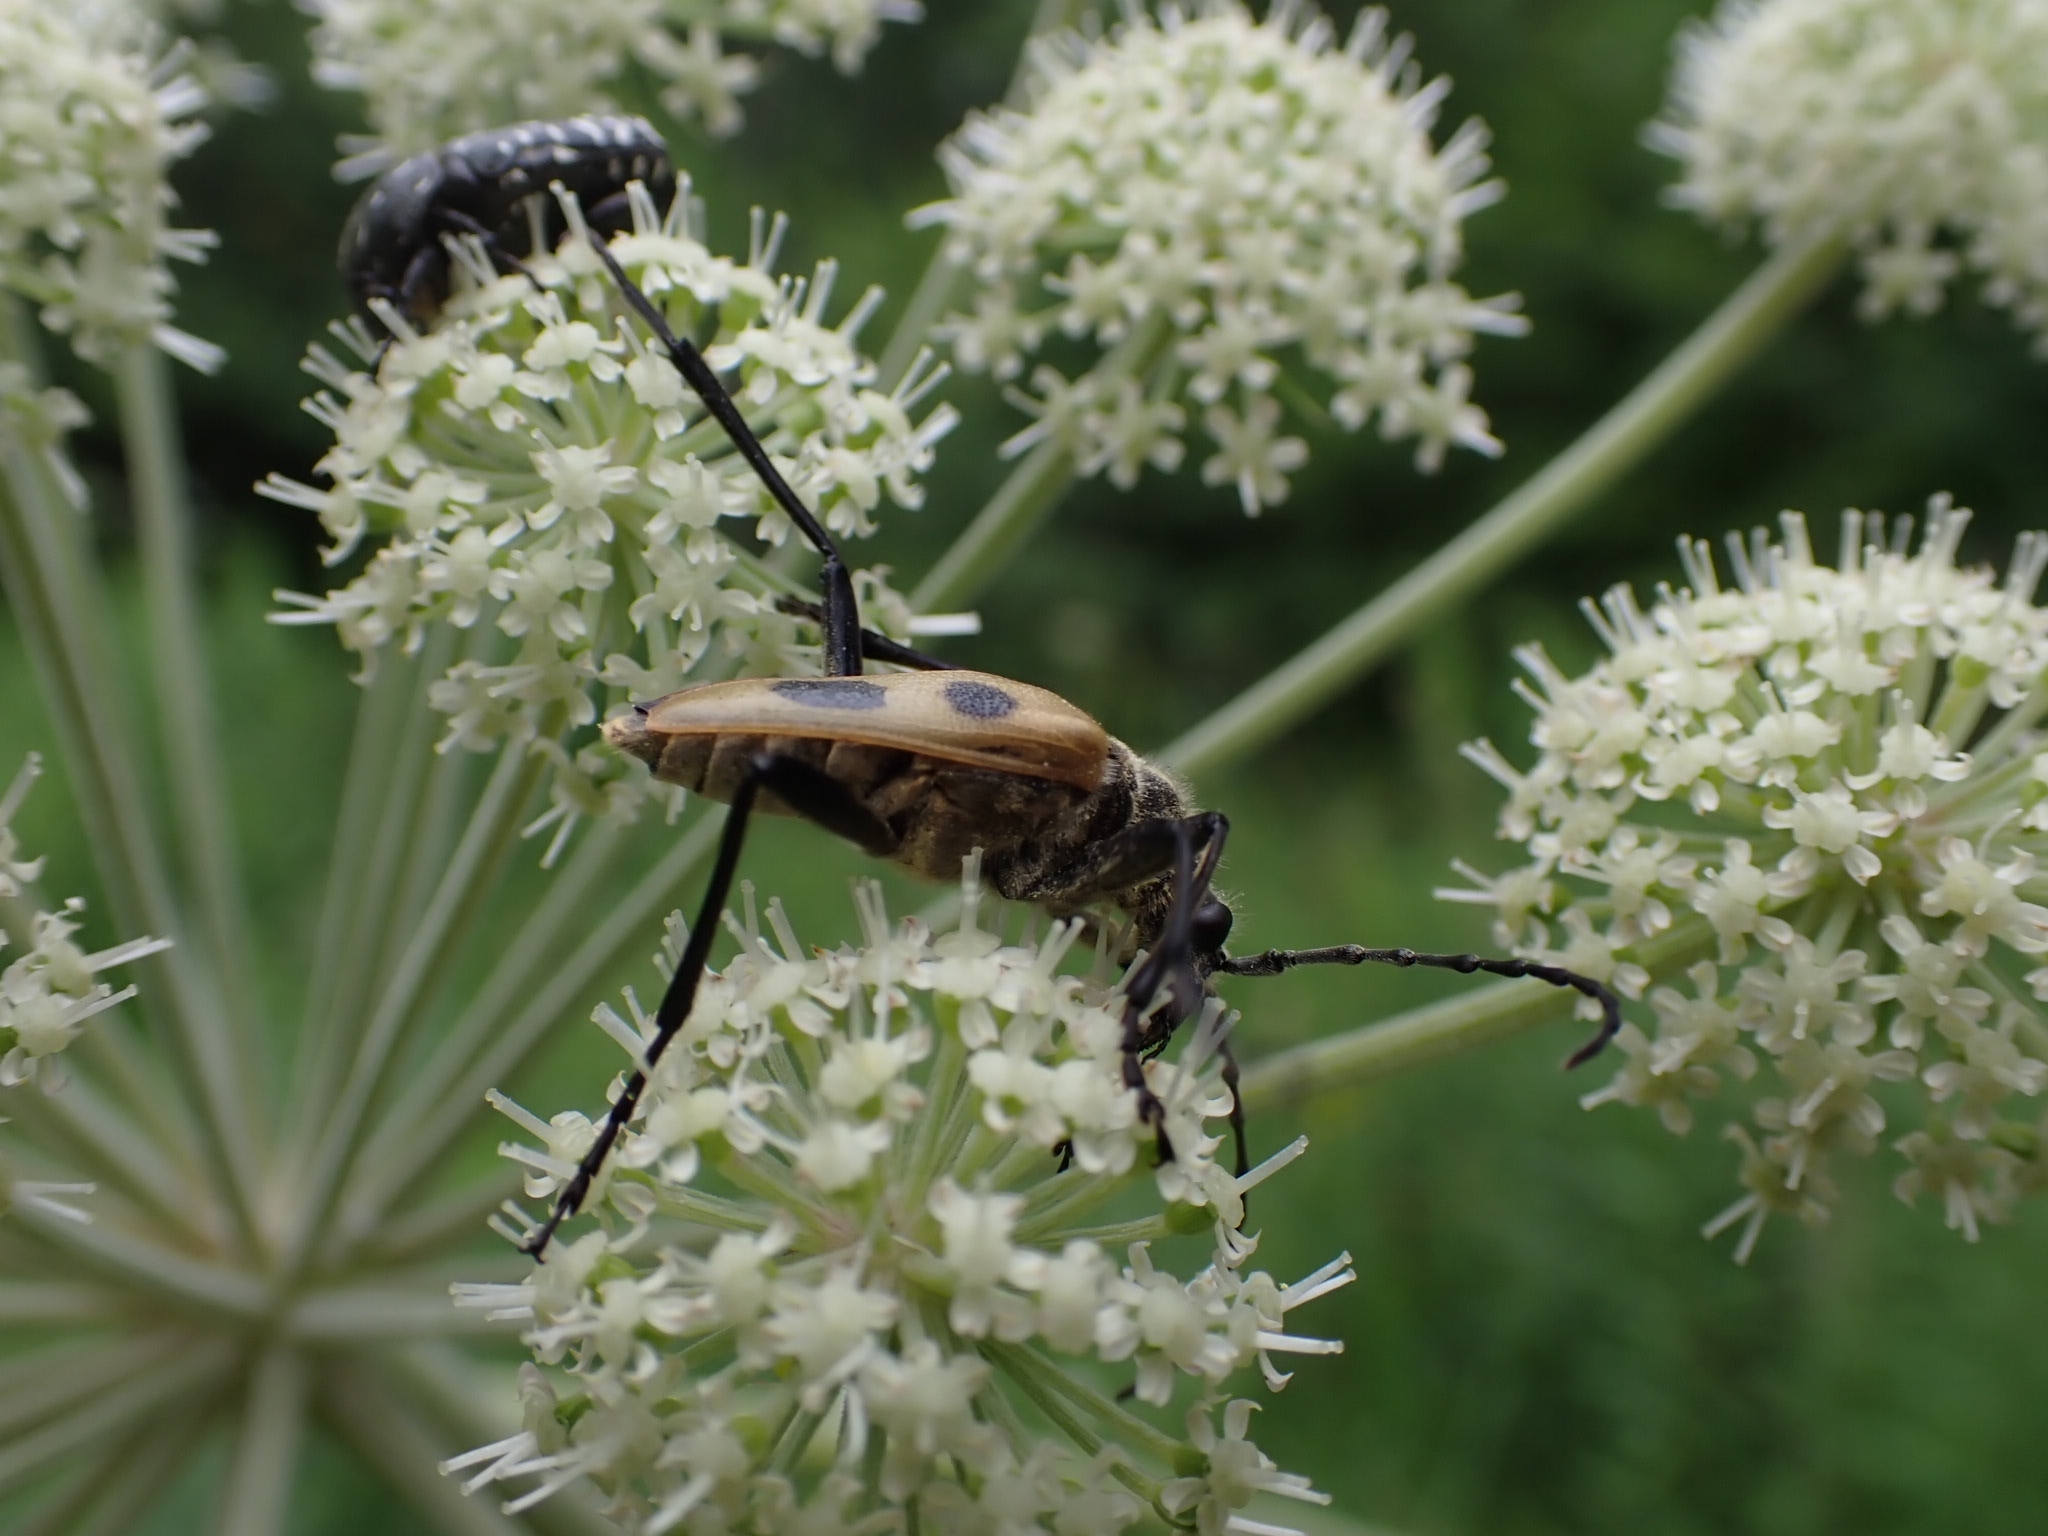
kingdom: Animalia
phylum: Arthropoda
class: Insecta
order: Coleoptera
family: Cerambycidae
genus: Pachyta
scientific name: Pachyta quadrimaculata
